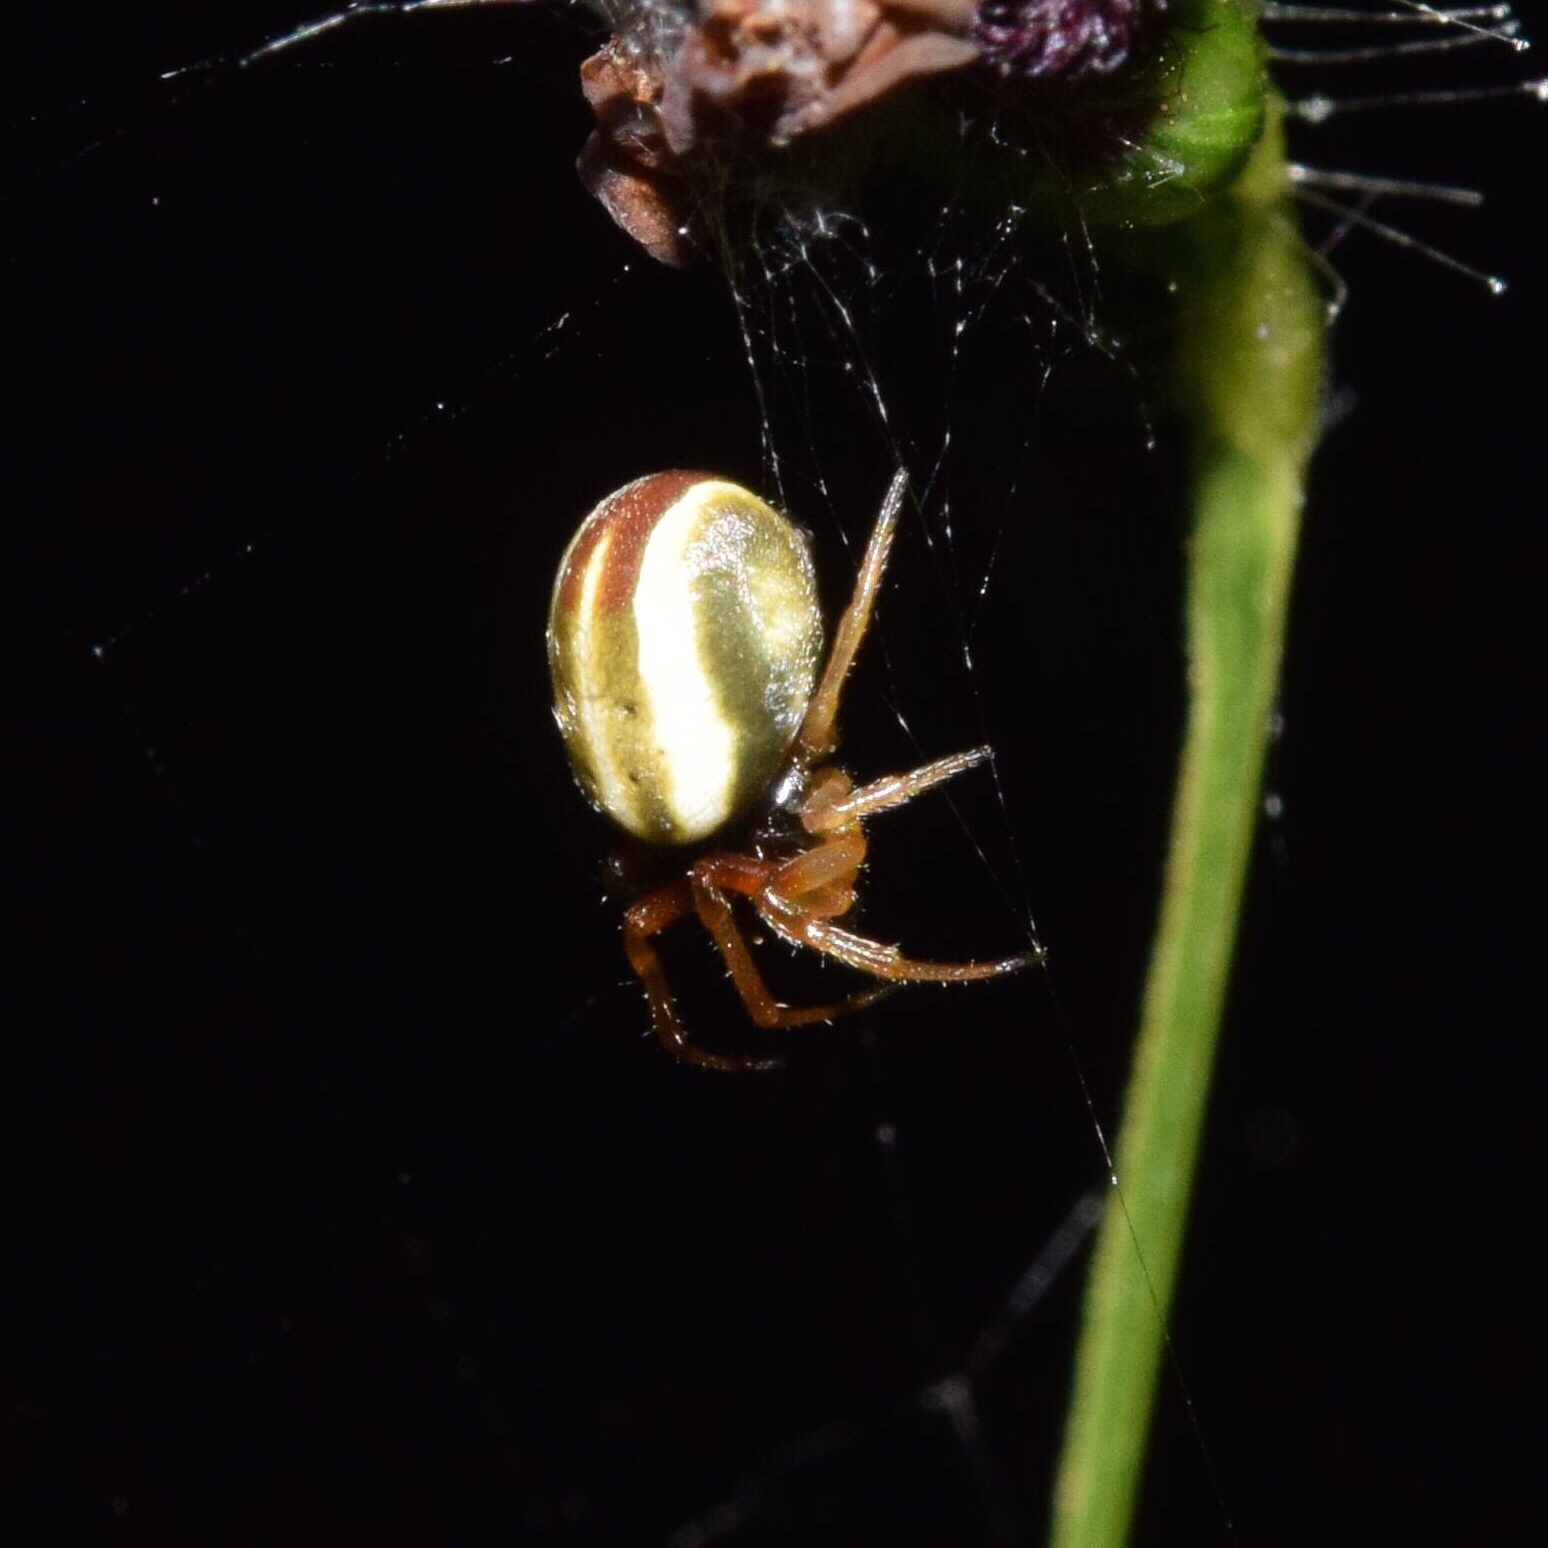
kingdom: Animalia
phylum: Arthropoda
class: Arachnida
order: Araneae
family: Araneidae
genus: Singa
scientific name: Singa albodorsata
